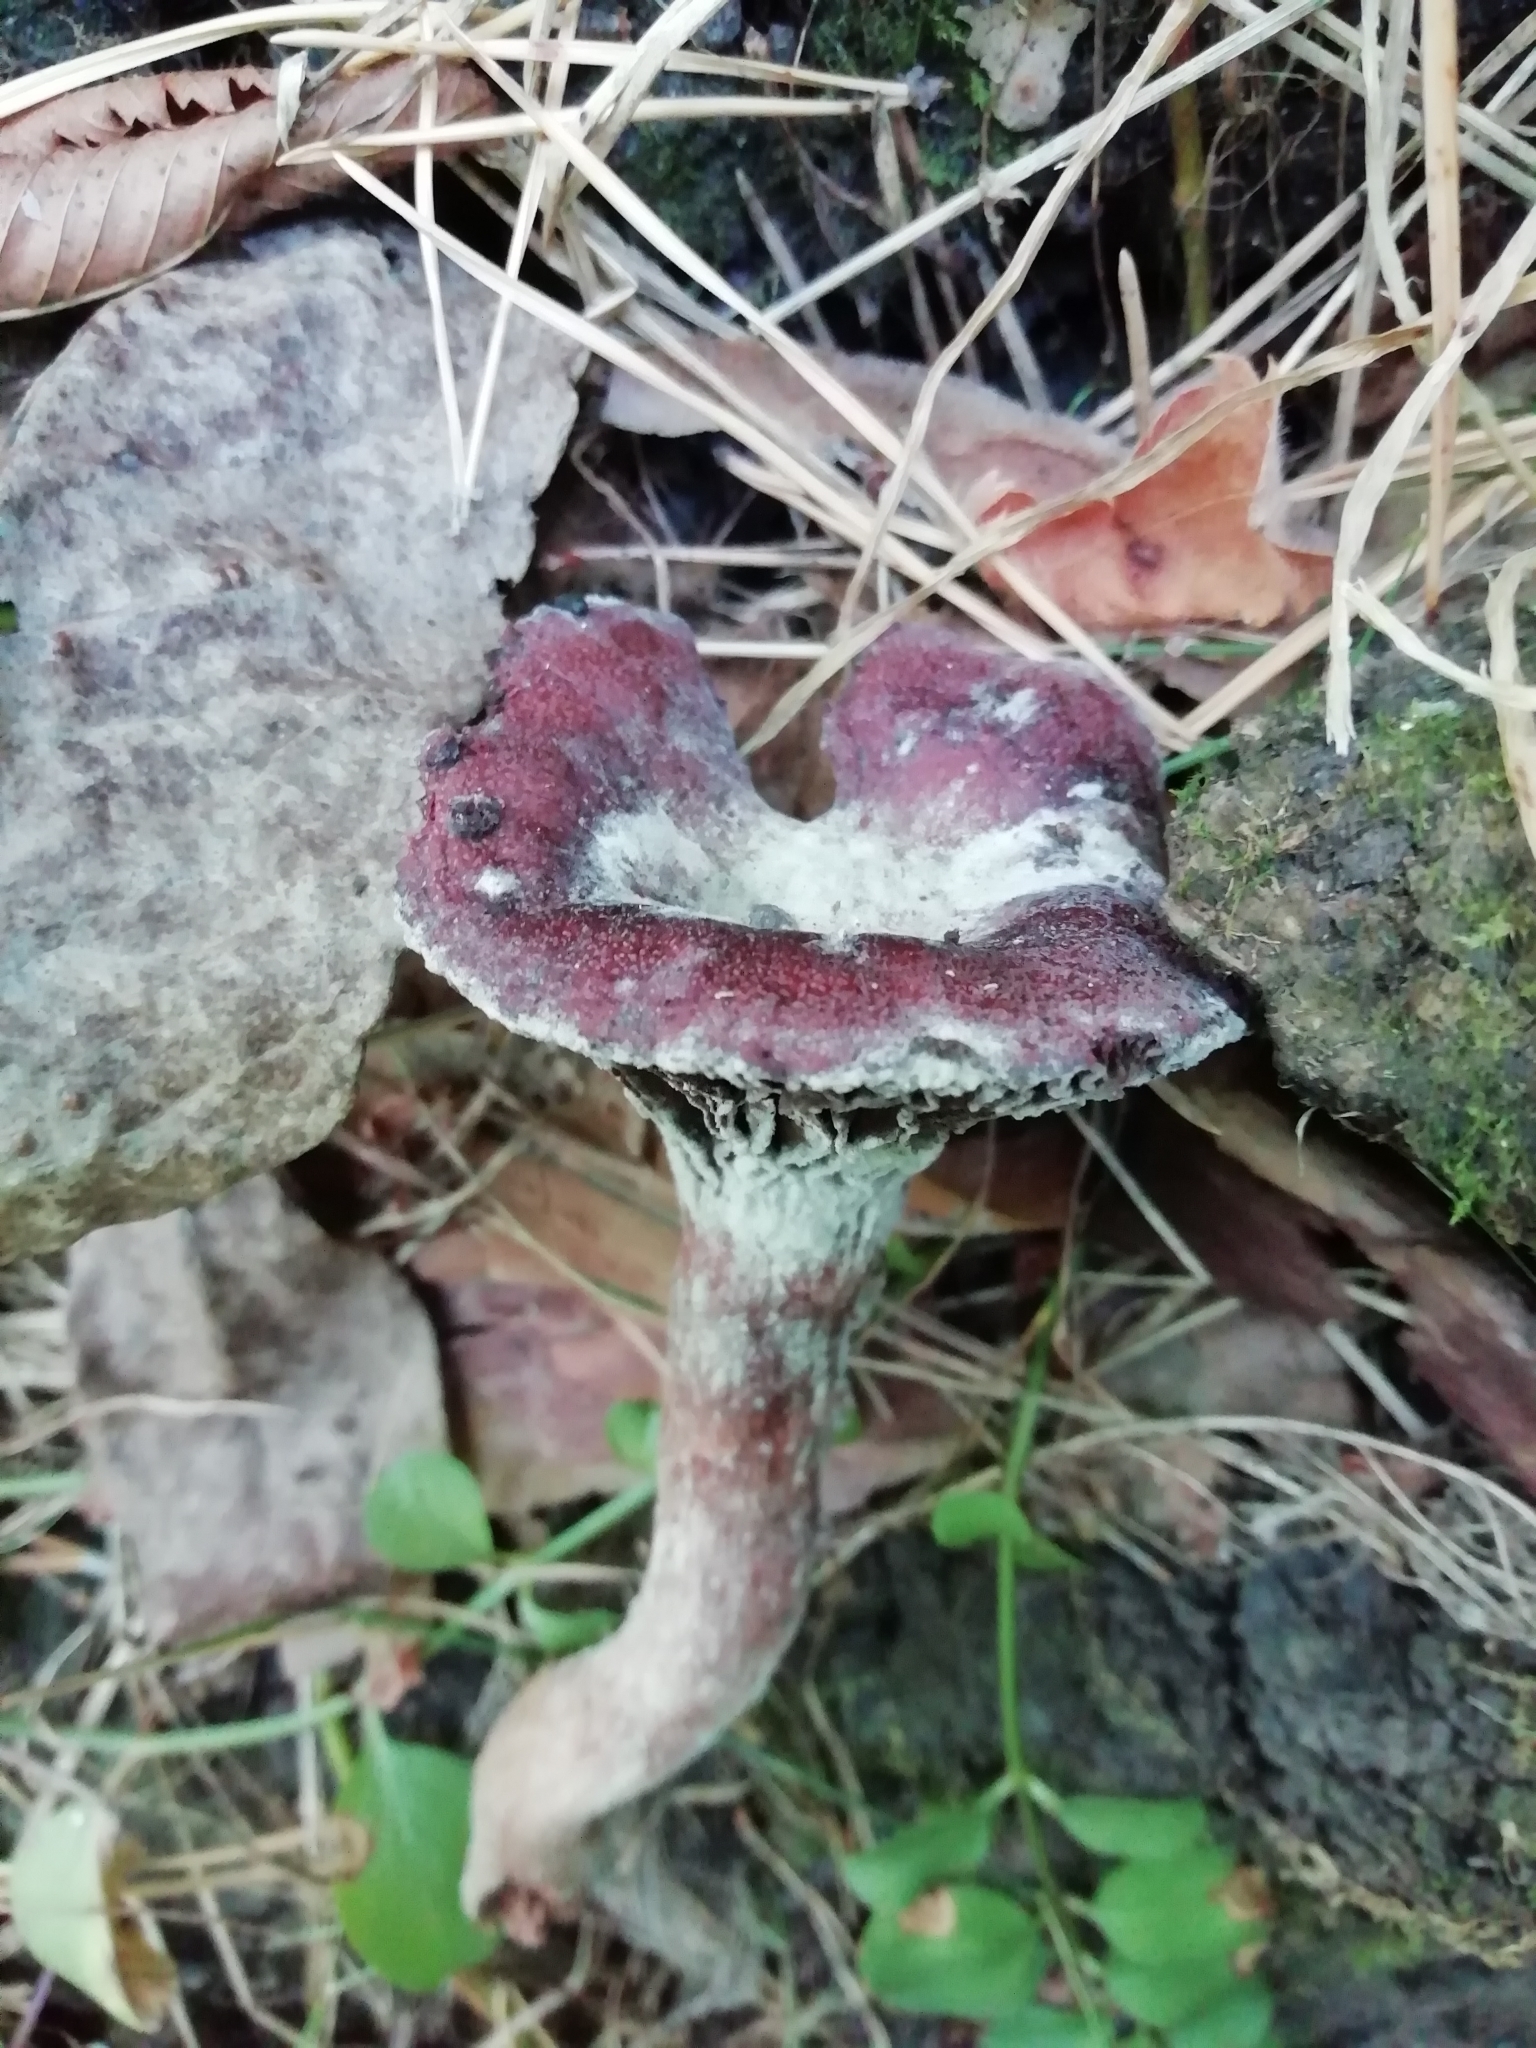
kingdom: Fungi
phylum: Basidiomycota
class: Agaricomycetes
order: Boletales
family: Gomphidiaceae
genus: Chroogomphus
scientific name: Chroogomphus rutilus
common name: Copper spike
